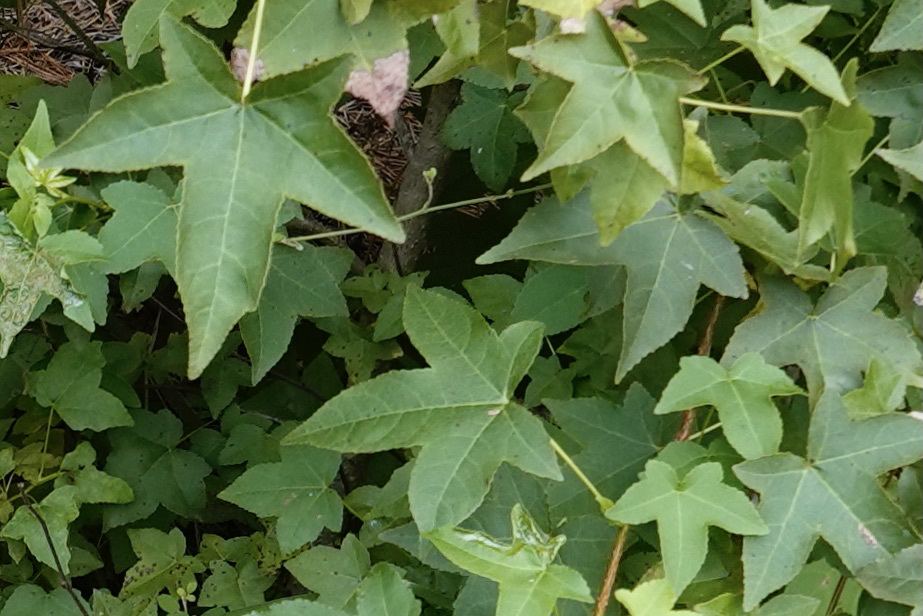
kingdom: Plantae
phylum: Tracheophyta
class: Magnoliopsida
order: Saxifragales
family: Altingiaceae
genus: Liquidambar
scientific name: Liquidambar styraciflua
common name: Sweet gum
